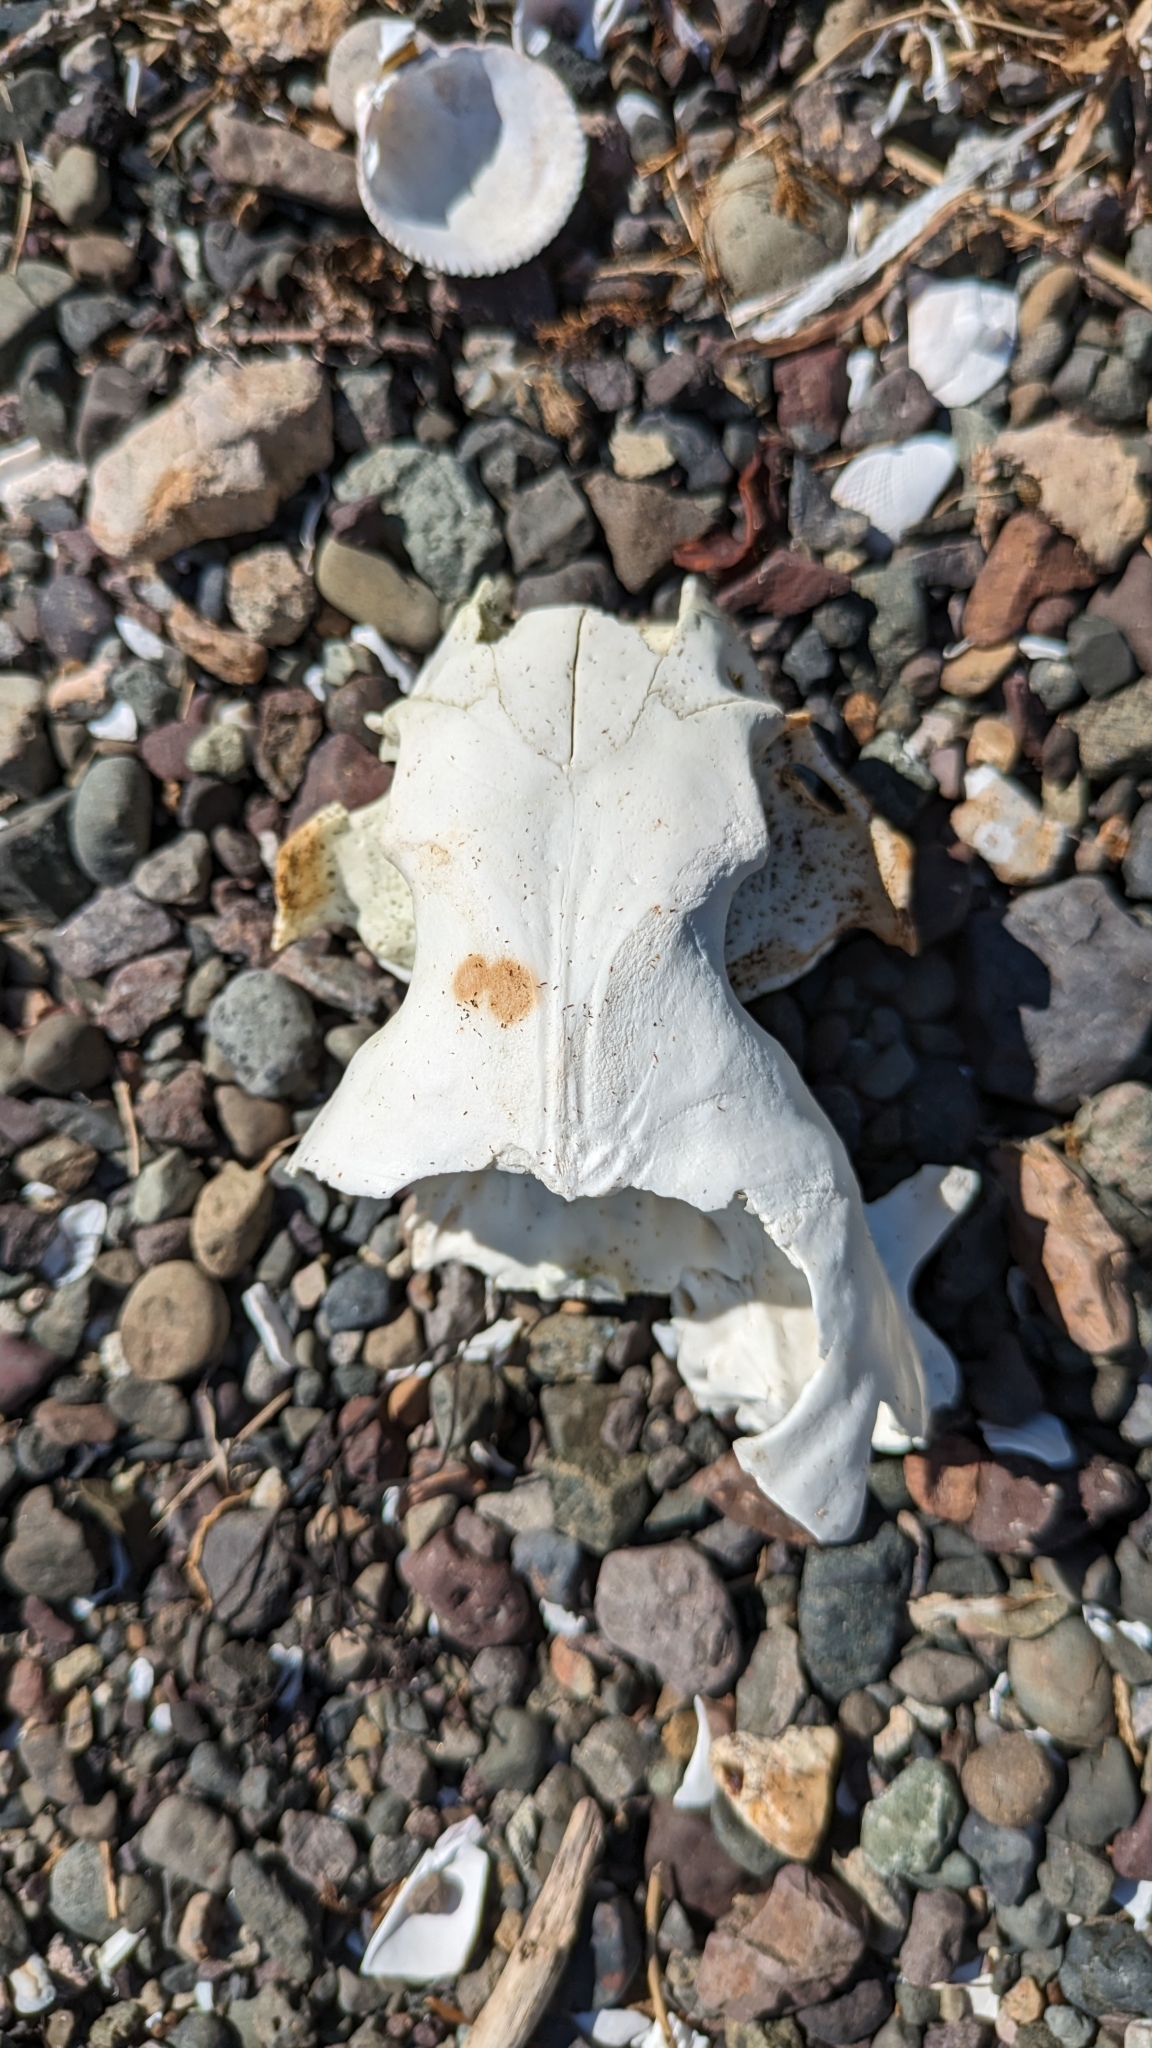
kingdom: Animalia
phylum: Chordata
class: Mammalia
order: Carnivora
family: Mustelidae
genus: Enhydra
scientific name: Enhydra lutris
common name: Sea otter
